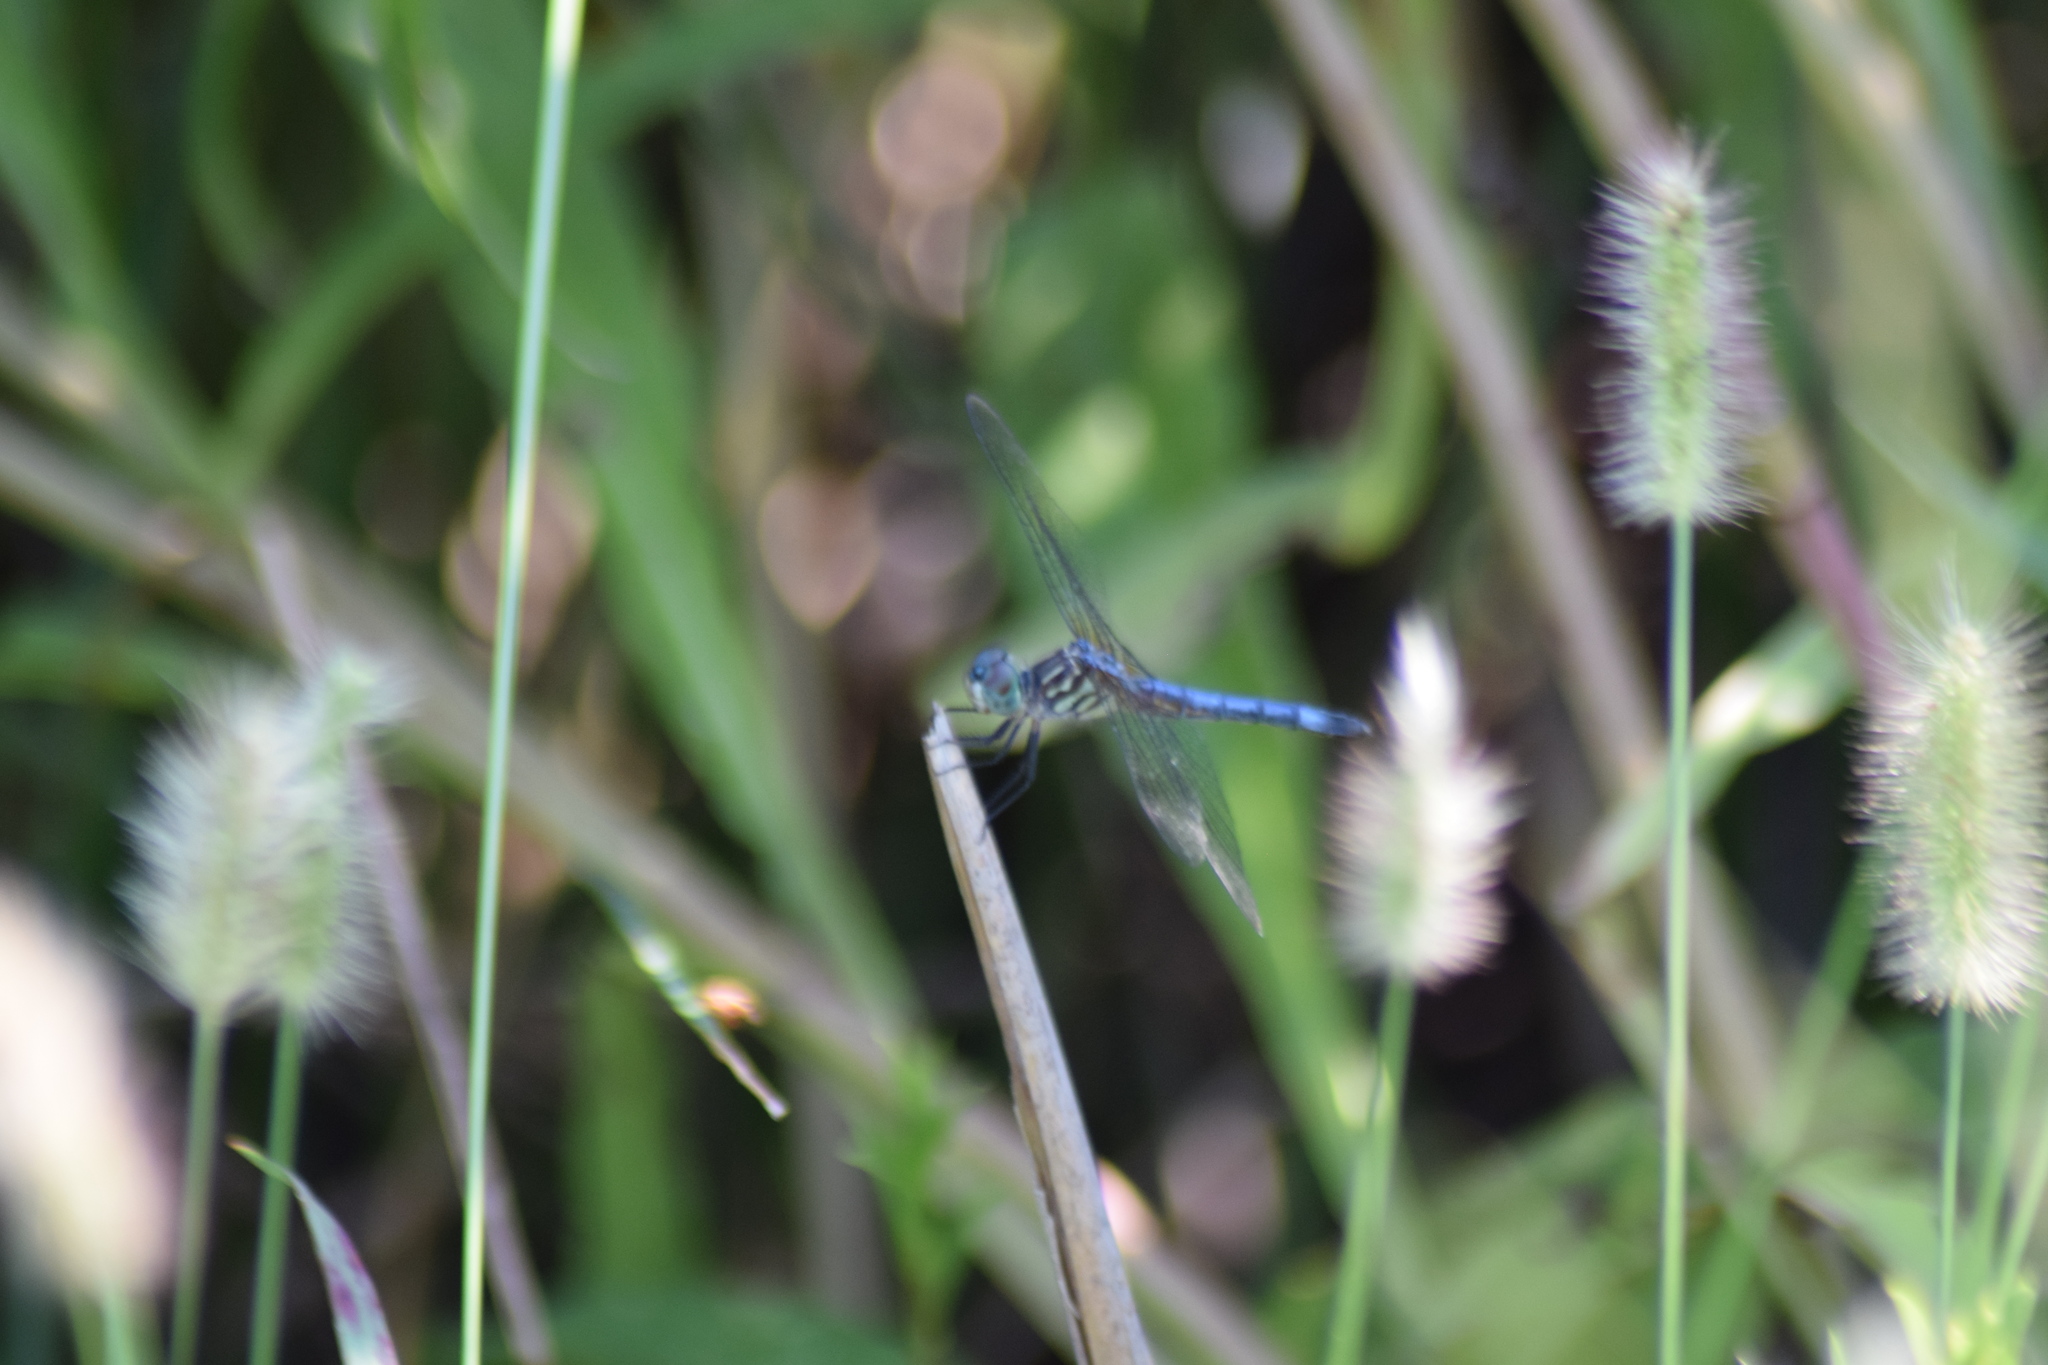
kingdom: Animalia
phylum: Arthropoda
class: Insecta
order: Odonata
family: Libellulidae
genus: Pachydiplax
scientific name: Pachydiplax longipennis
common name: Blue dasher
